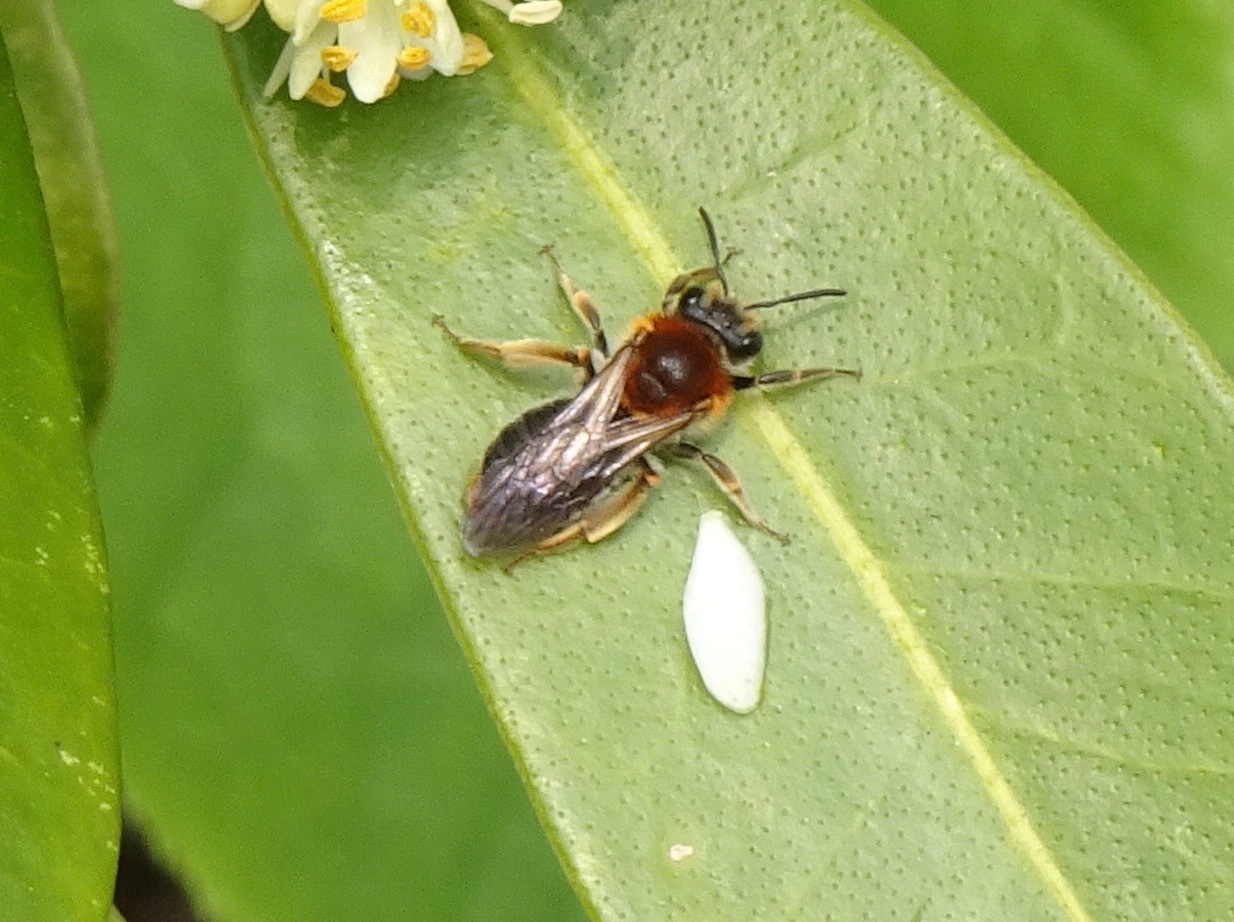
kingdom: Animalia
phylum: Arthropoda
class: Insecta
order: Hymenoptera
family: Andrenidae
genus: Andrena
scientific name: Andrena haemorrhoa
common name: Early mining bee
